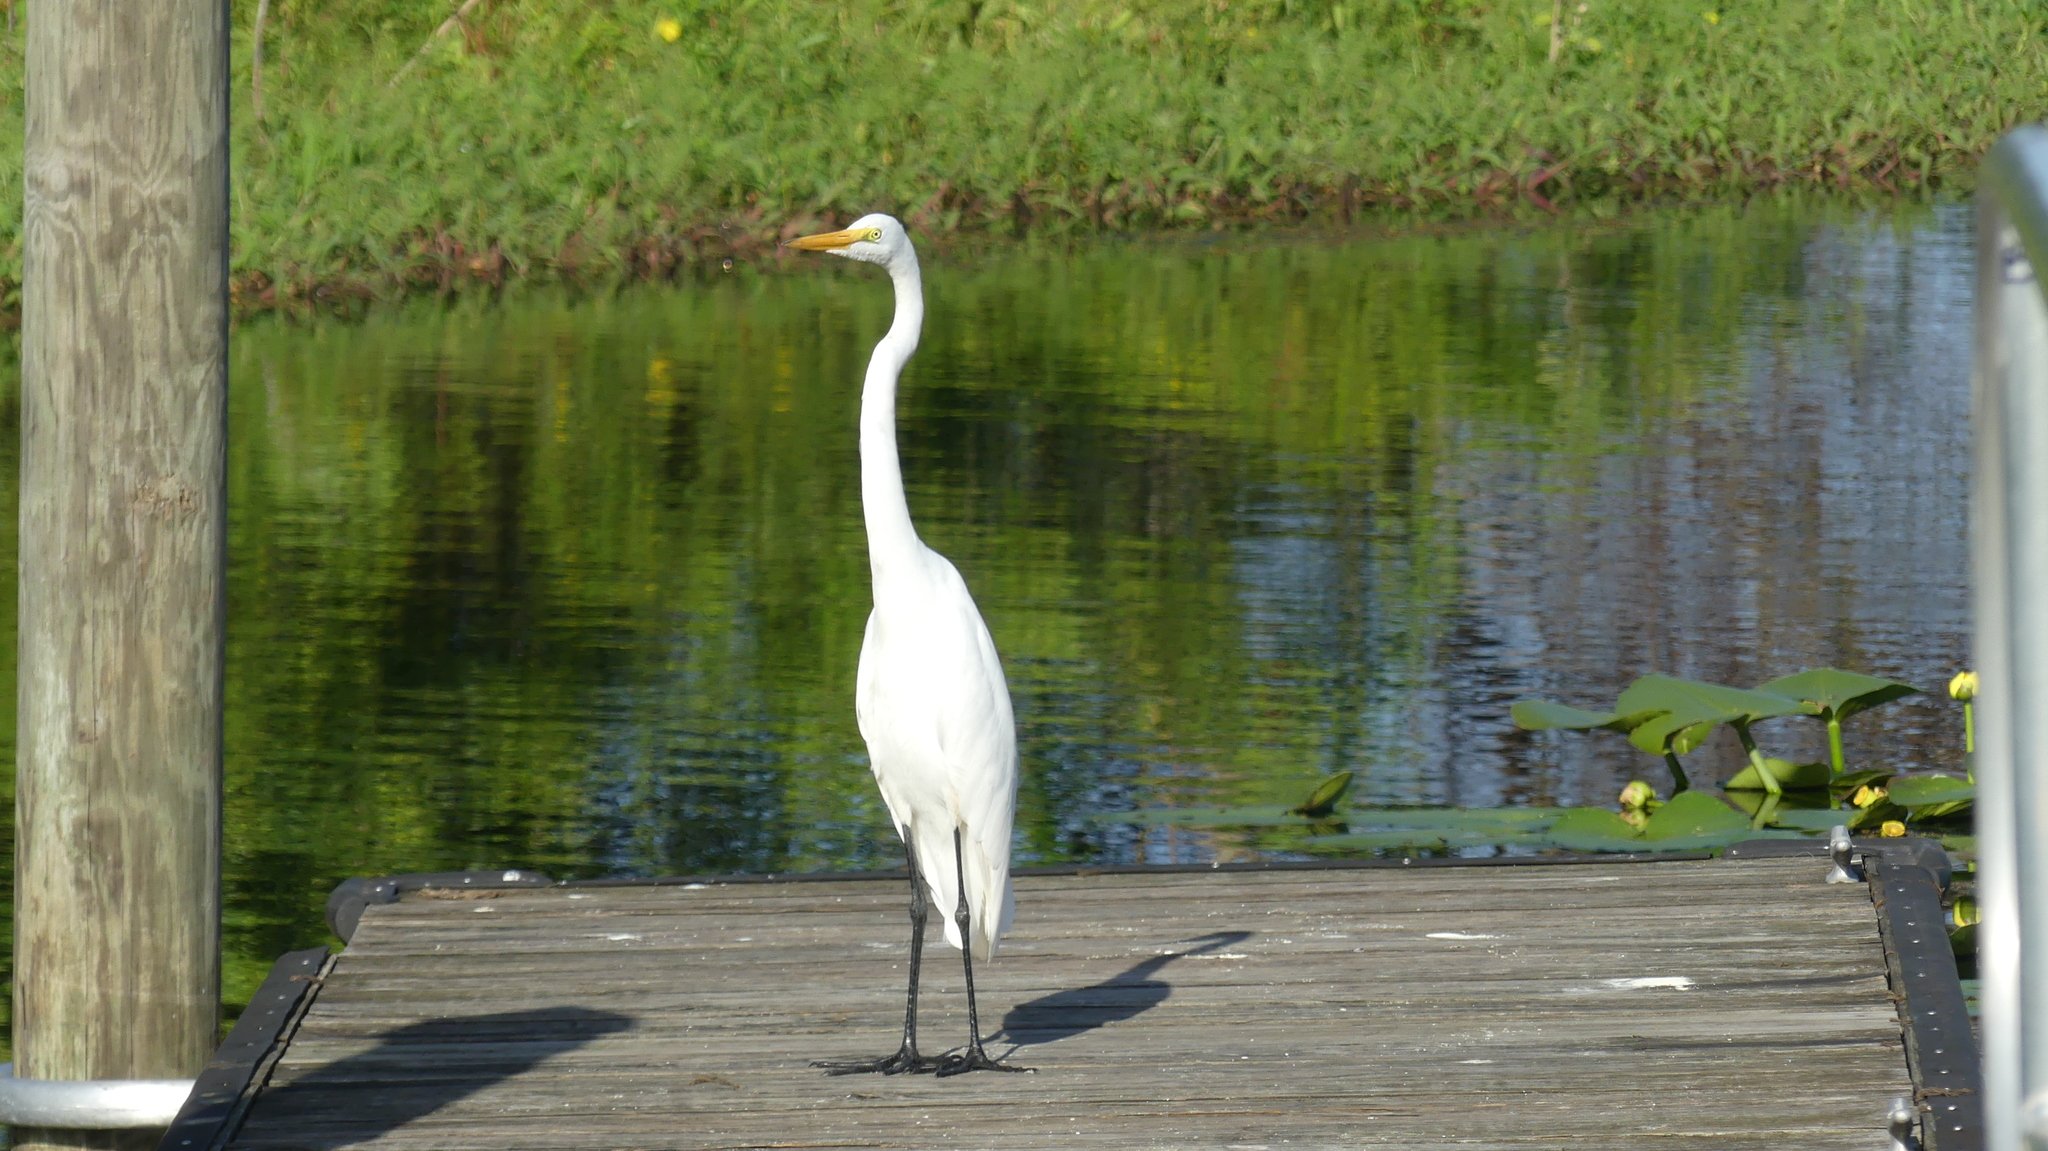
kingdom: Animalia
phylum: Chordata
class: Aves
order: Pelecaniformes
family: Ardeidae
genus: Ardea
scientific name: Ardea alba
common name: Great egret
